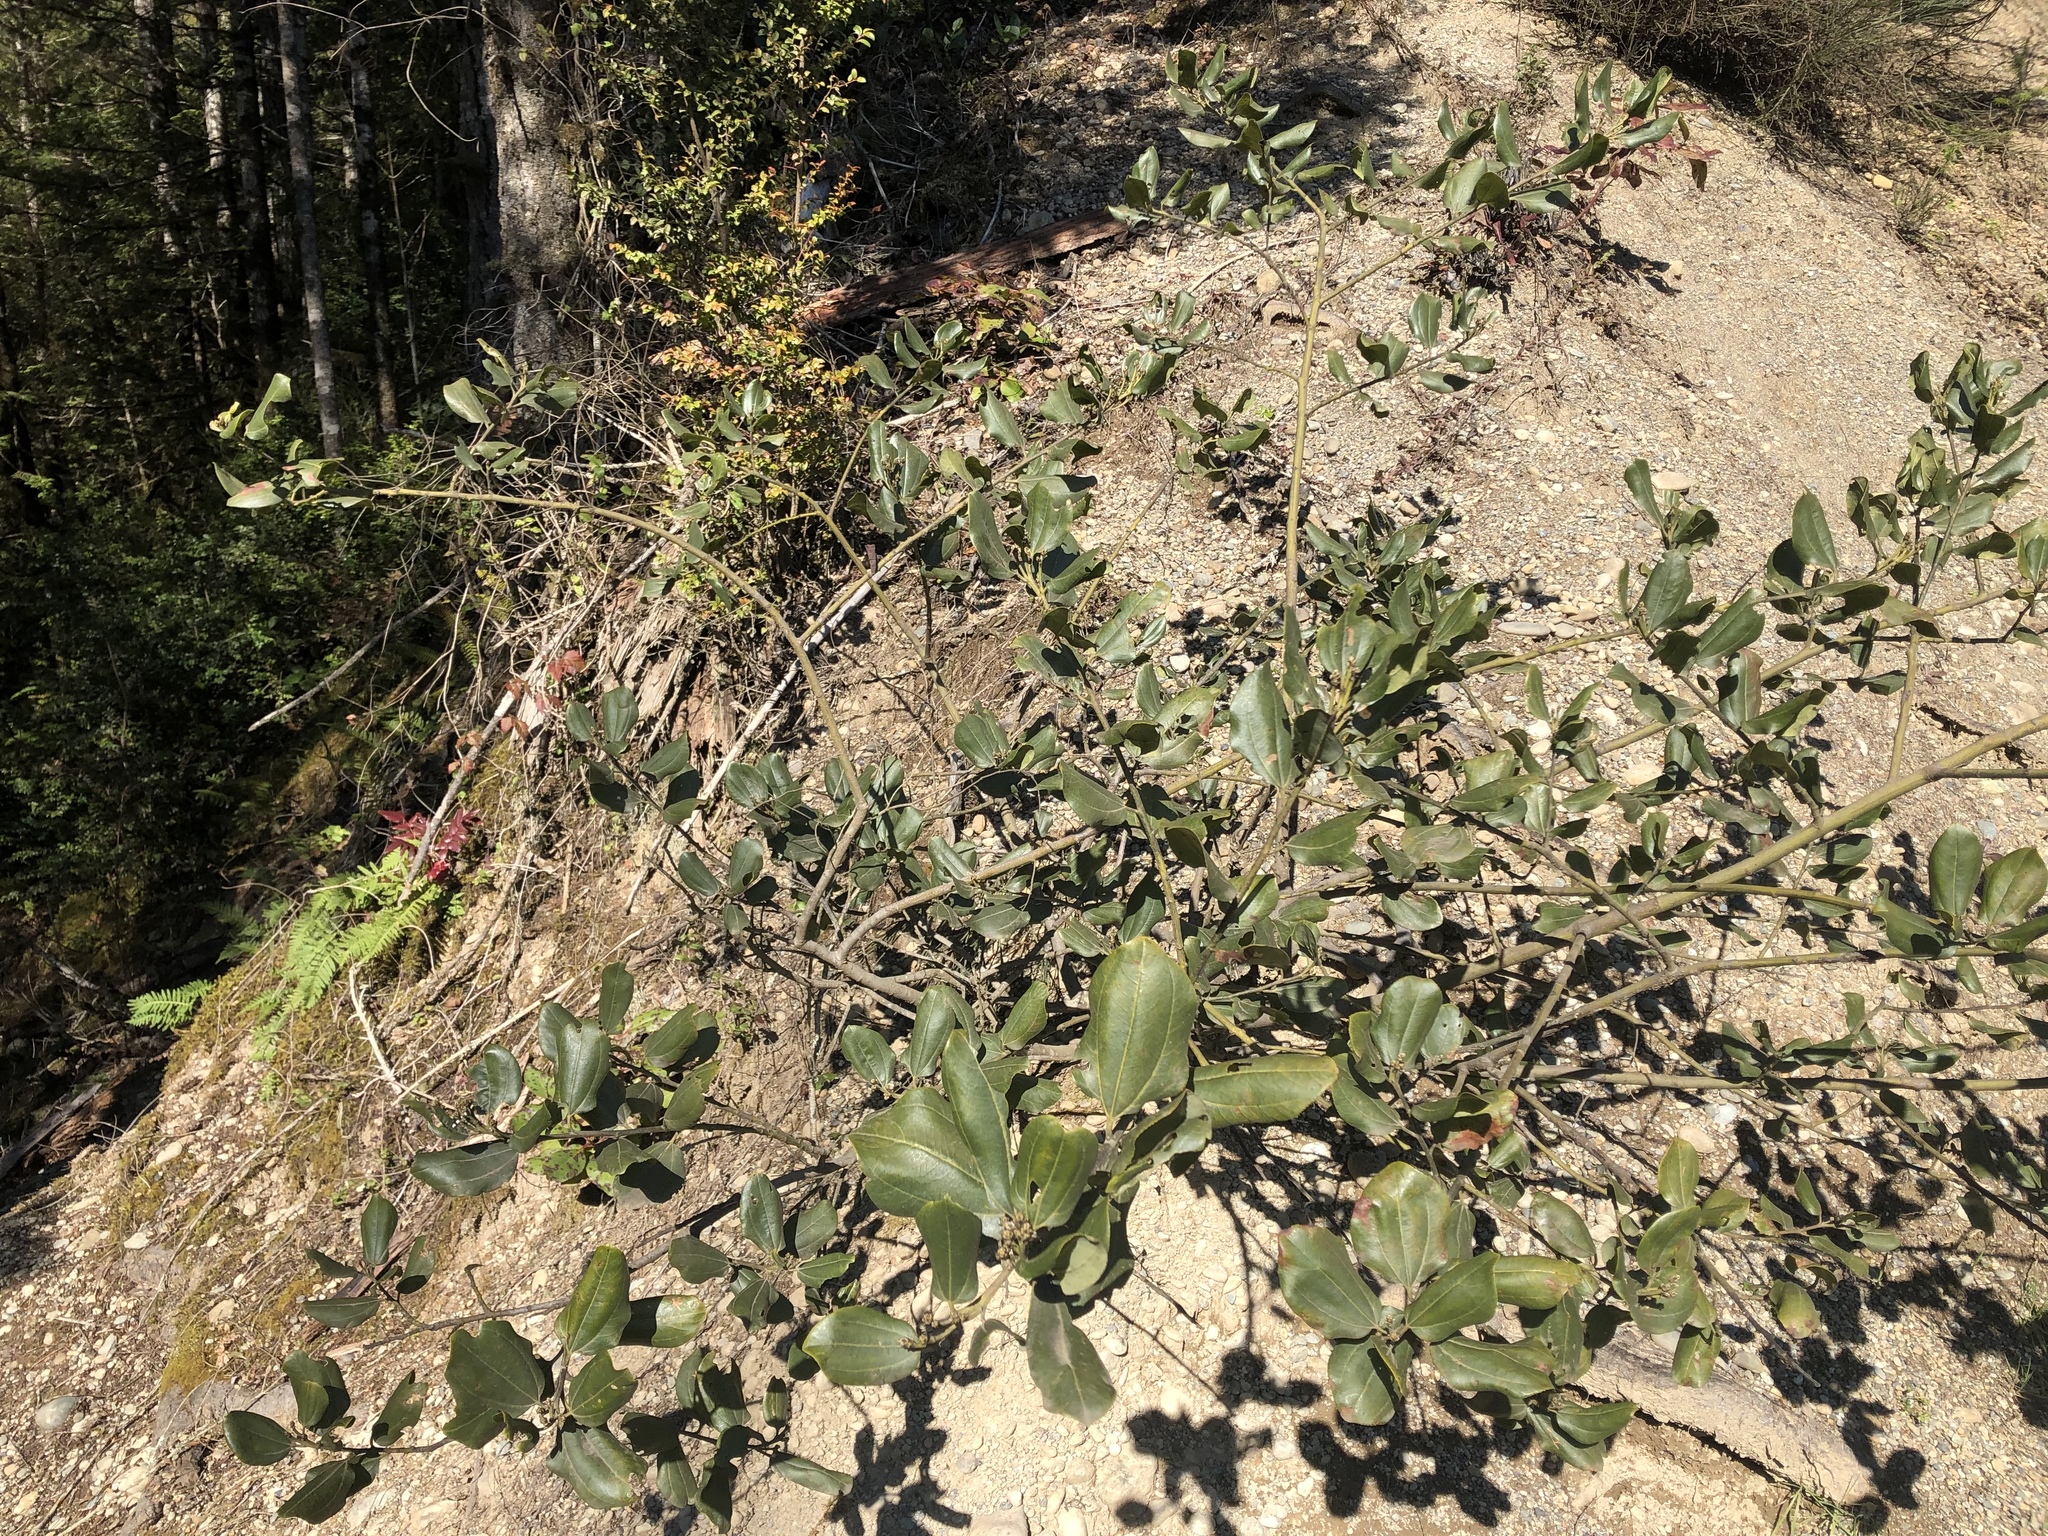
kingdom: Plantae
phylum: Tracheophyta
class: Magnoliopsida
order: Rosales
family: Rhamnaceae
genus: Ceanothus
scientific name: Ceanothus velutinus
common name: Snowbrush
